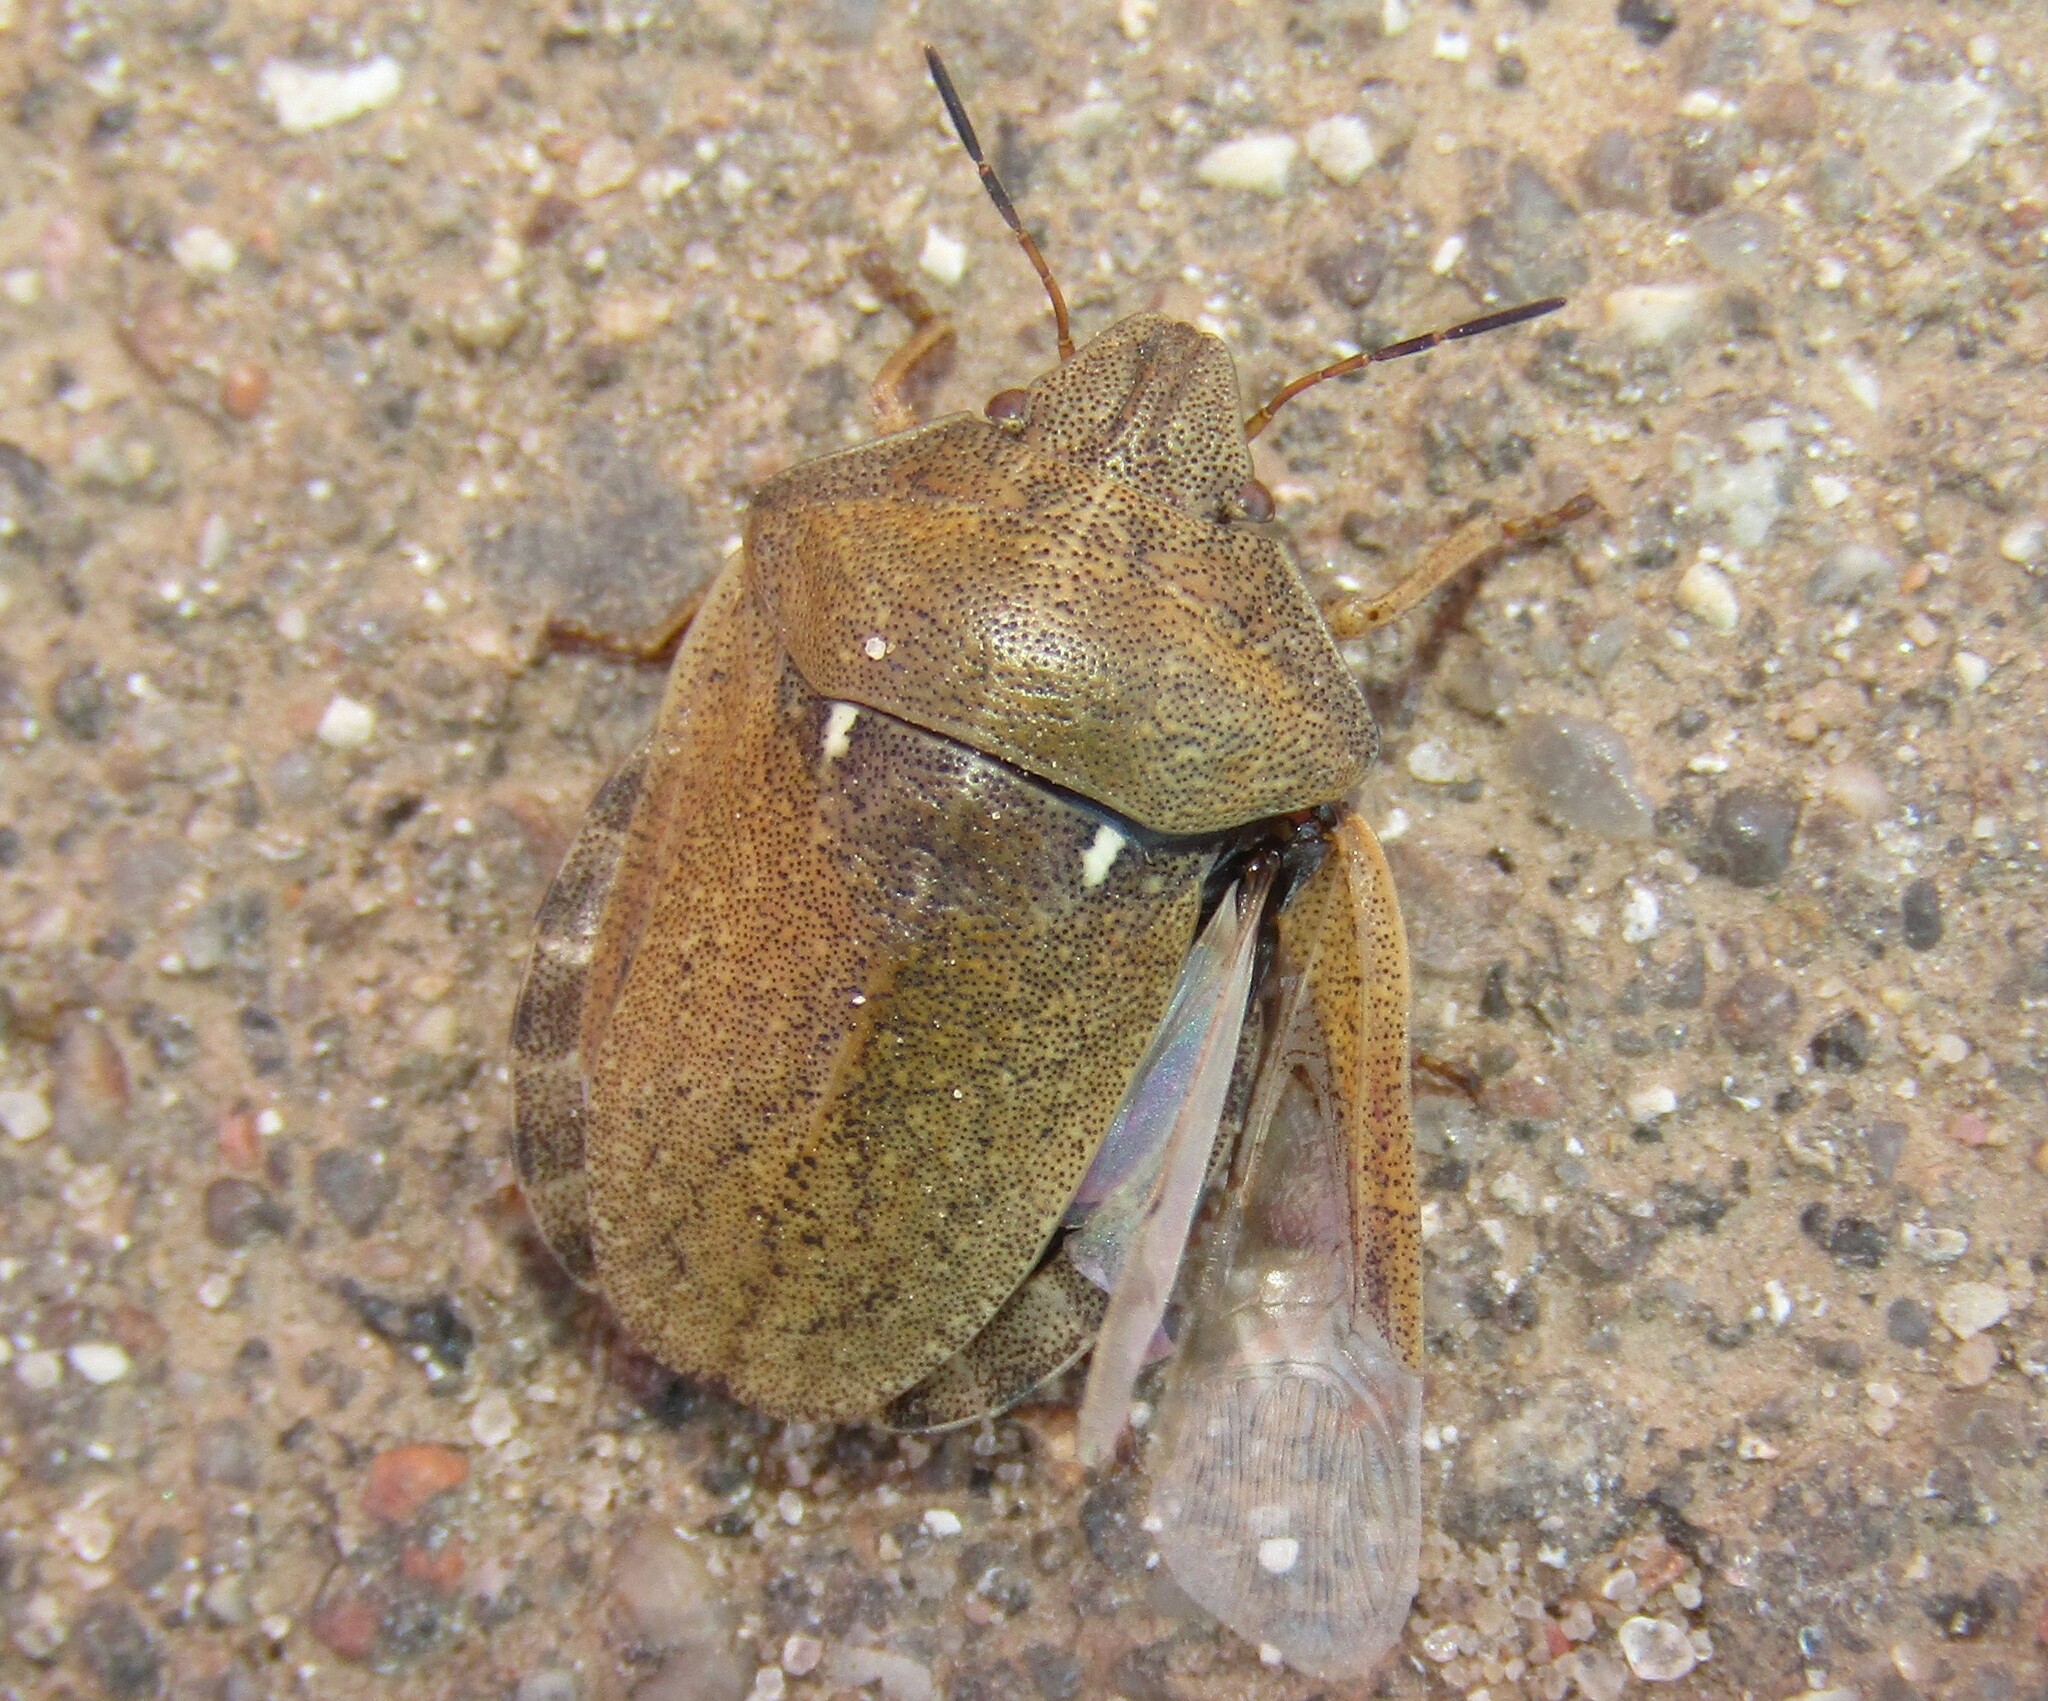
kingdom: Animalia
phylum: Arthropoda
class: Insecta
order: Hemiptera
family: Scutelleridae
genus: Eurygaster
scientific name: Eurygaster testudinaria
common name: Tortoise bug
